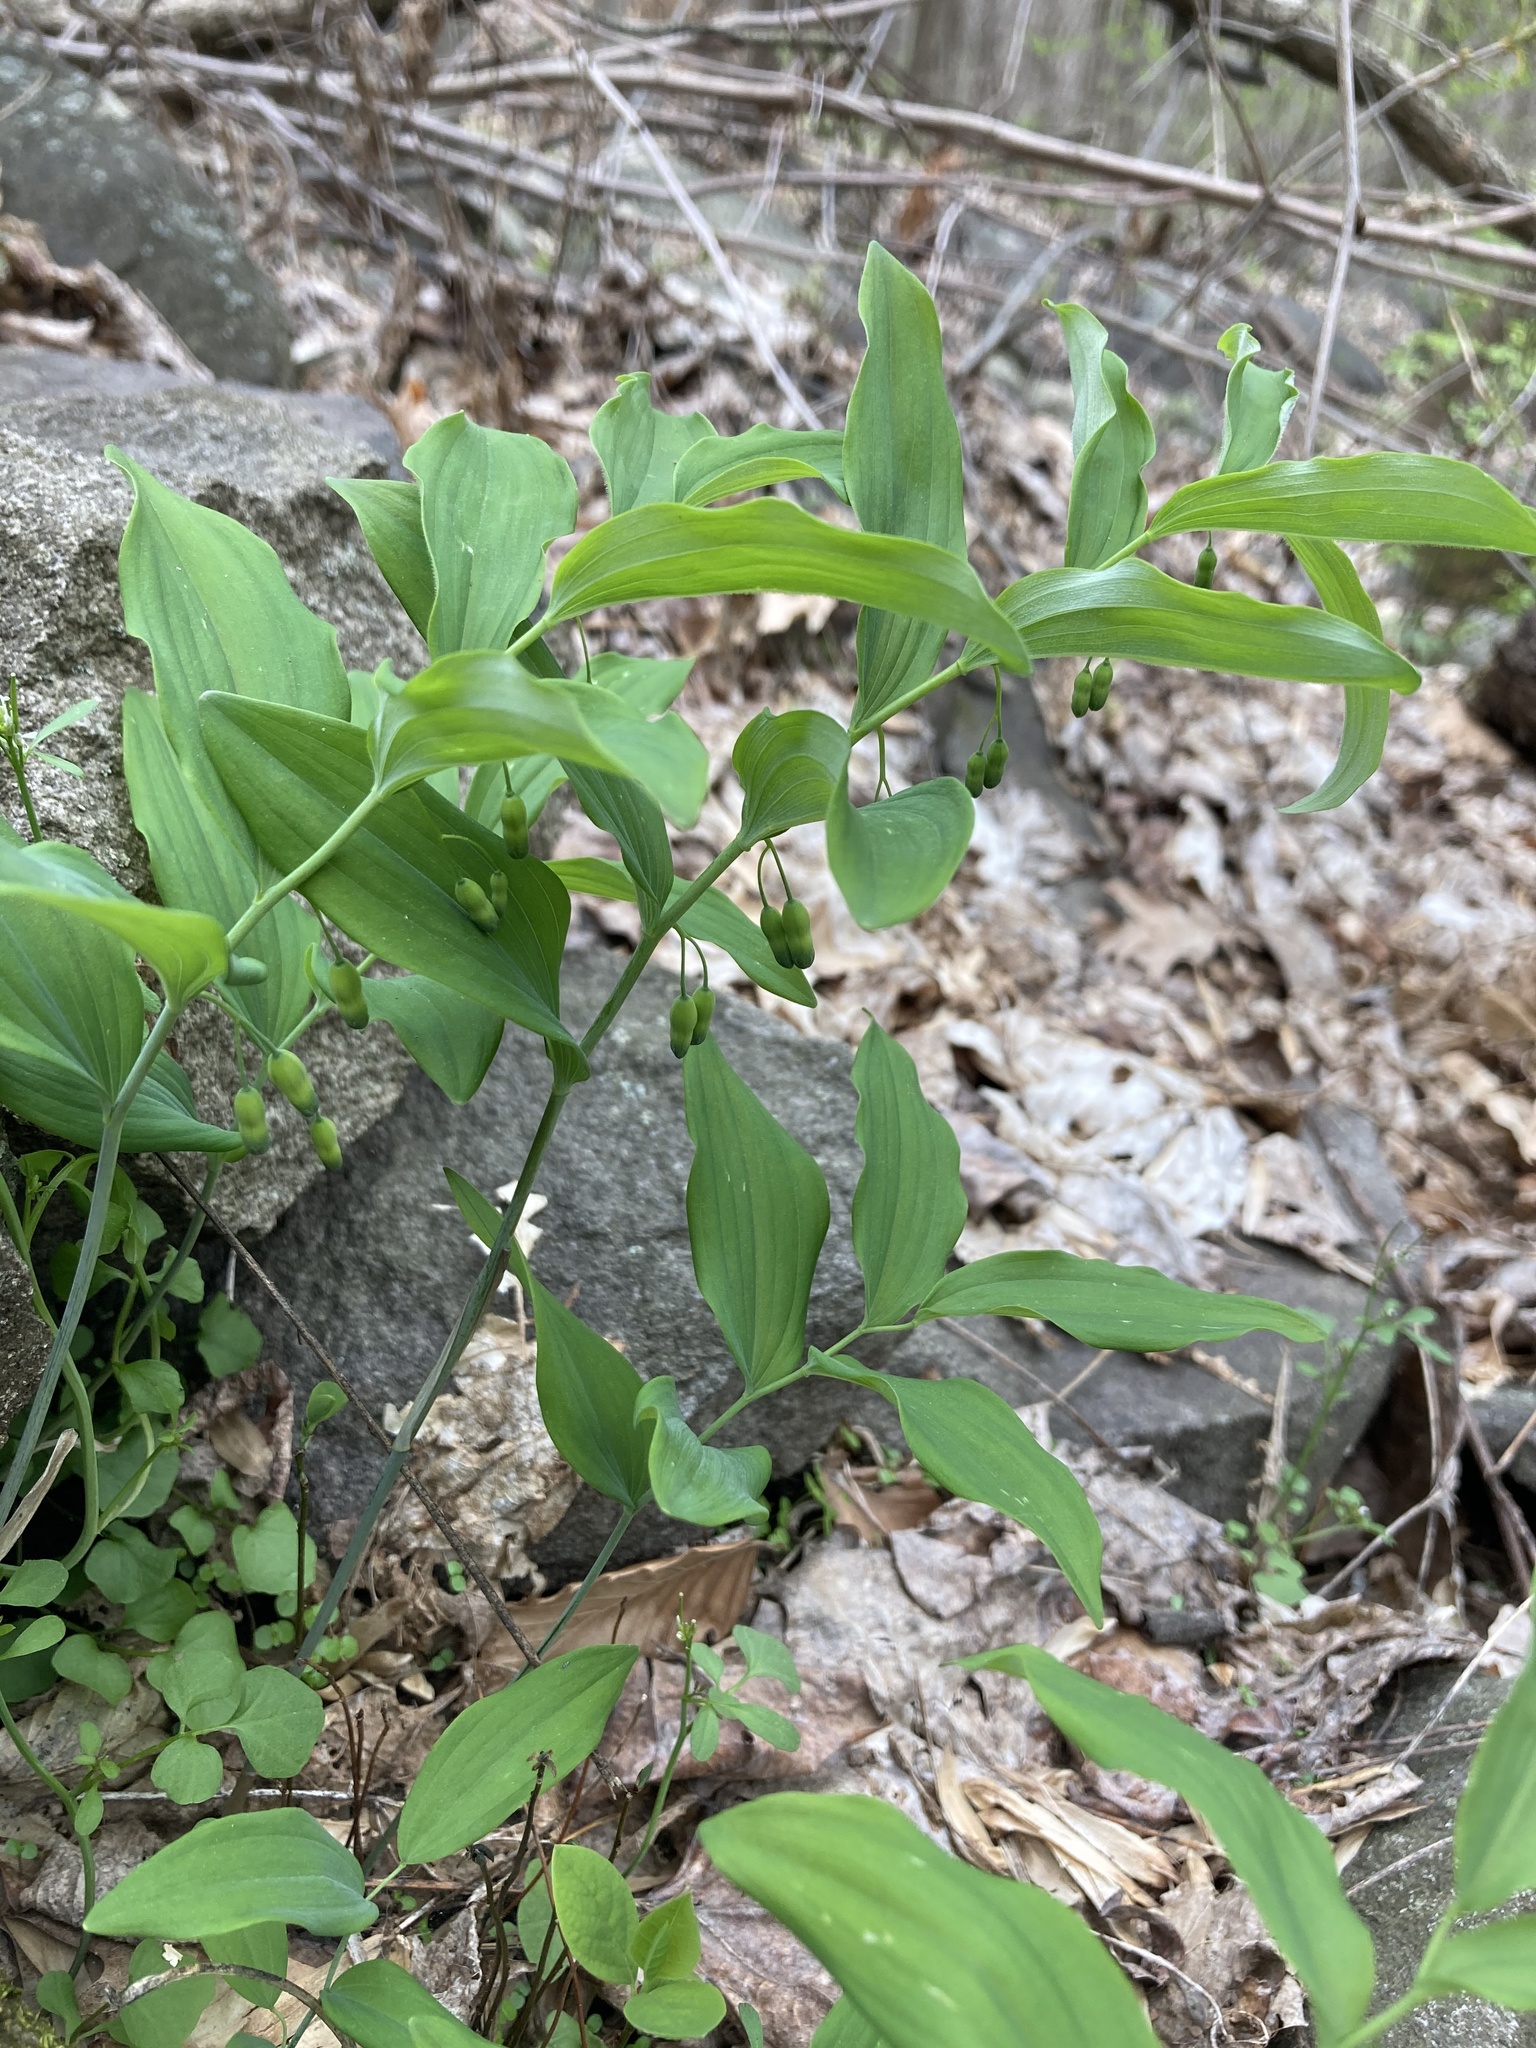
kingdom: Plantae
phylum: Tracheophyta
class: Liliopsida
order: Asparagales
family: Asparagaceae
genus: Polygonatum
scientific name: Polygonatum pubescens
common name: Downy solomon's seal
